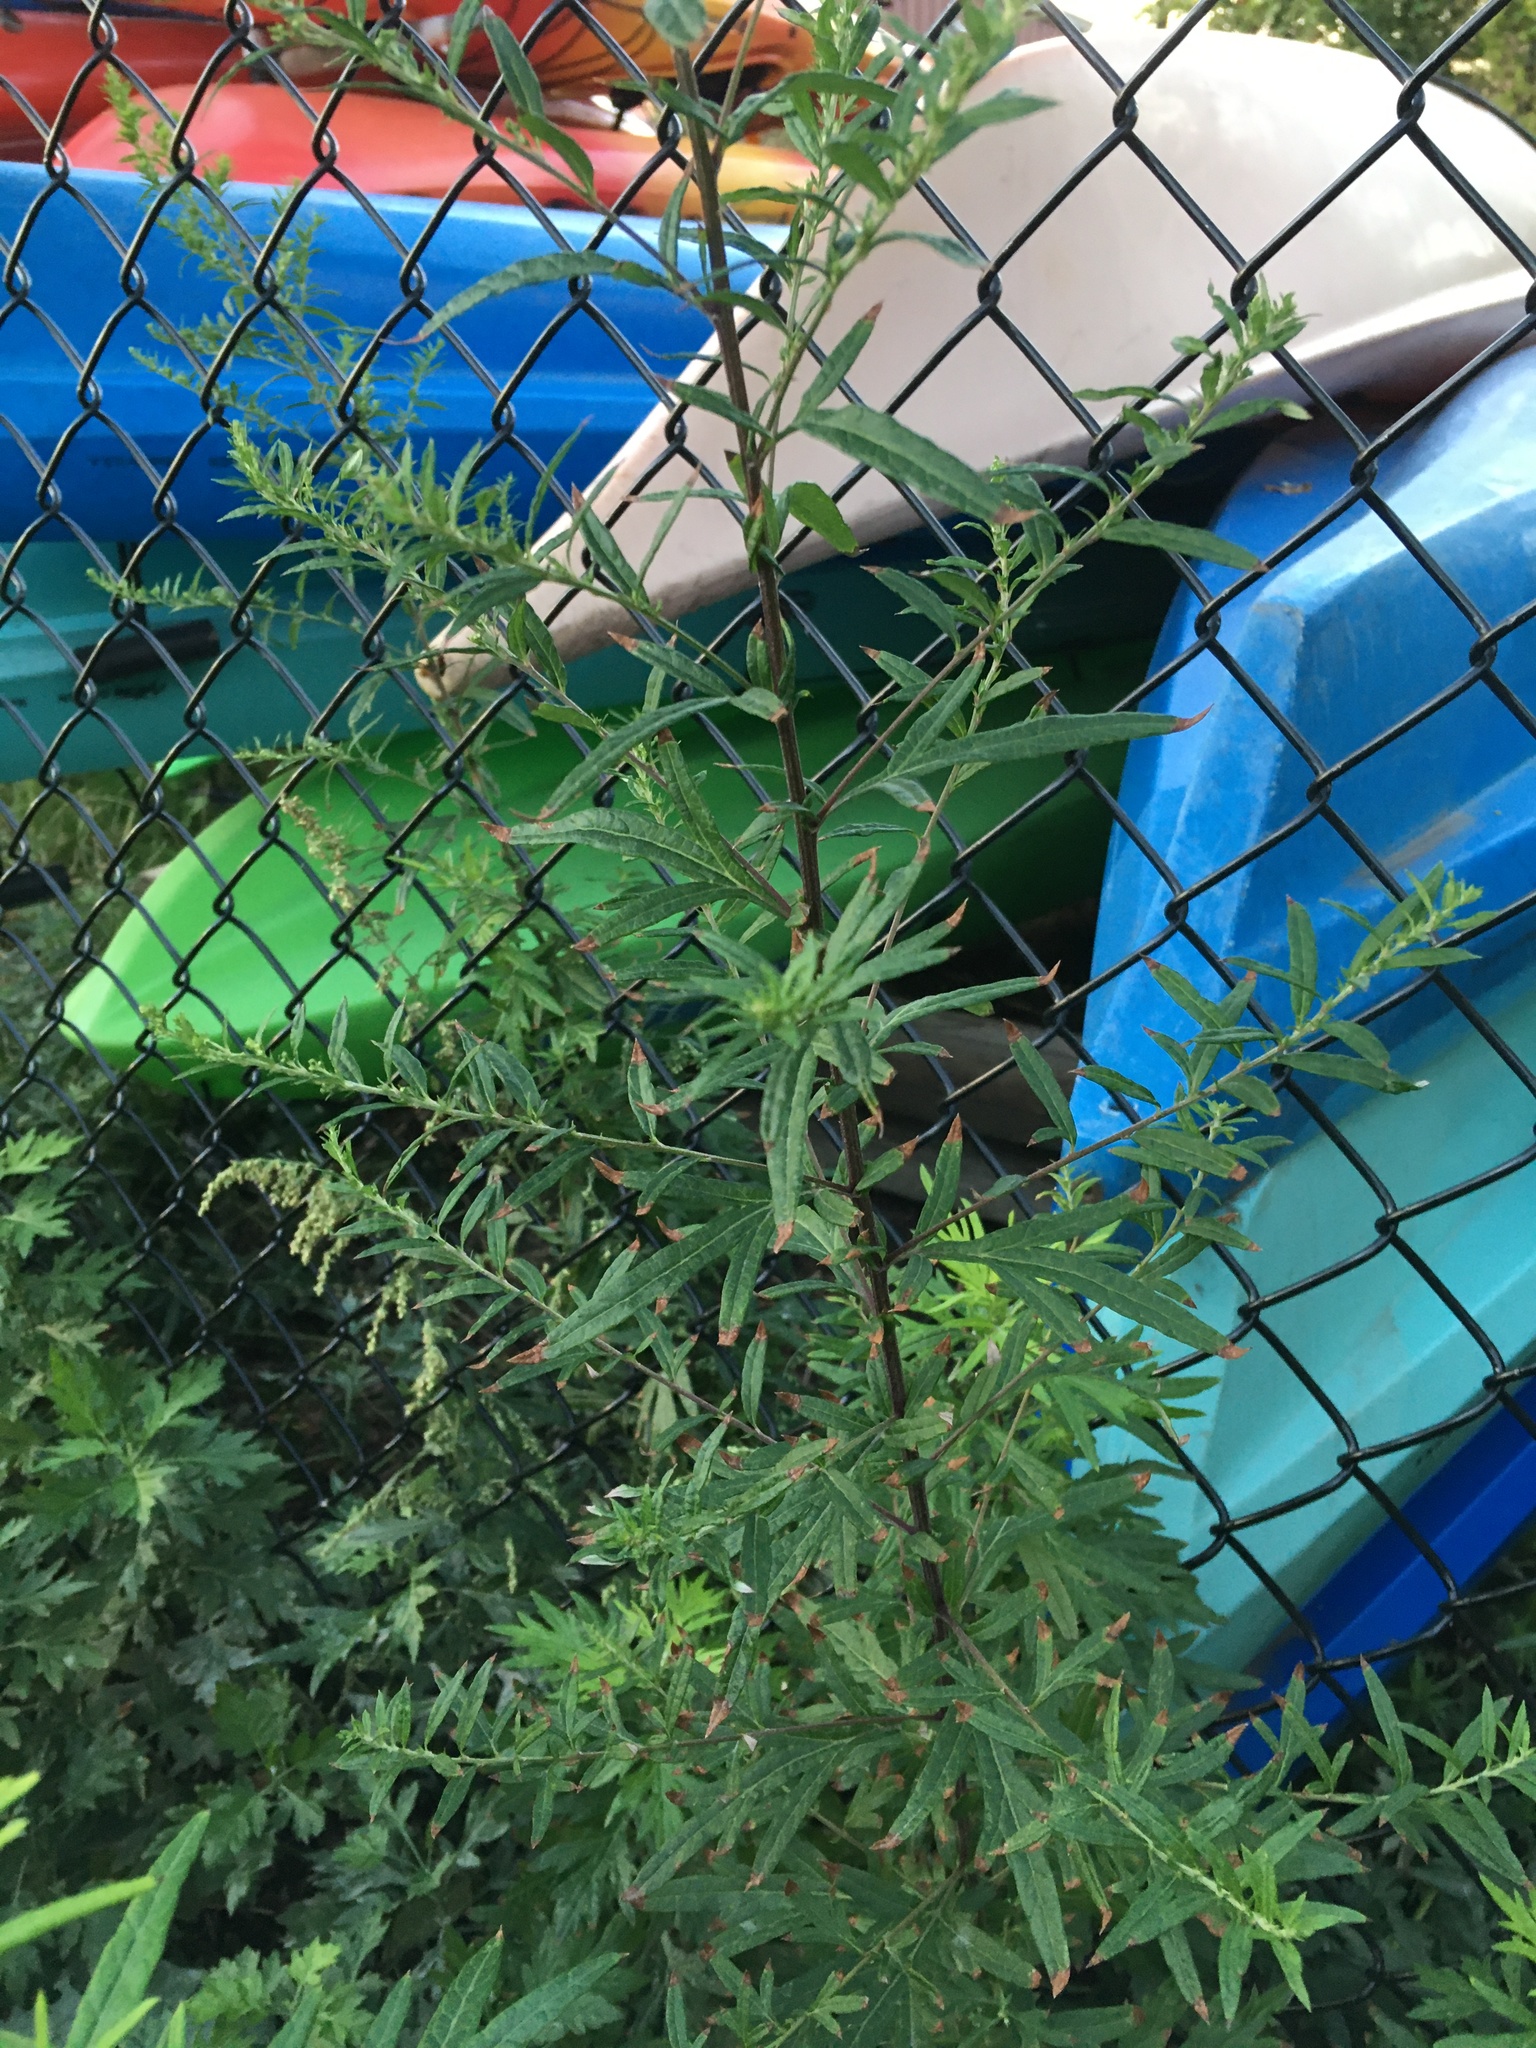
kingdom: Plantae
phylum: Tracheophyta
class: Magnoliopsida
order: Asterales
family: Asteraceae
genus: Artemisia
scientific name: Artemisia vulgaris
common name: Mugwort
